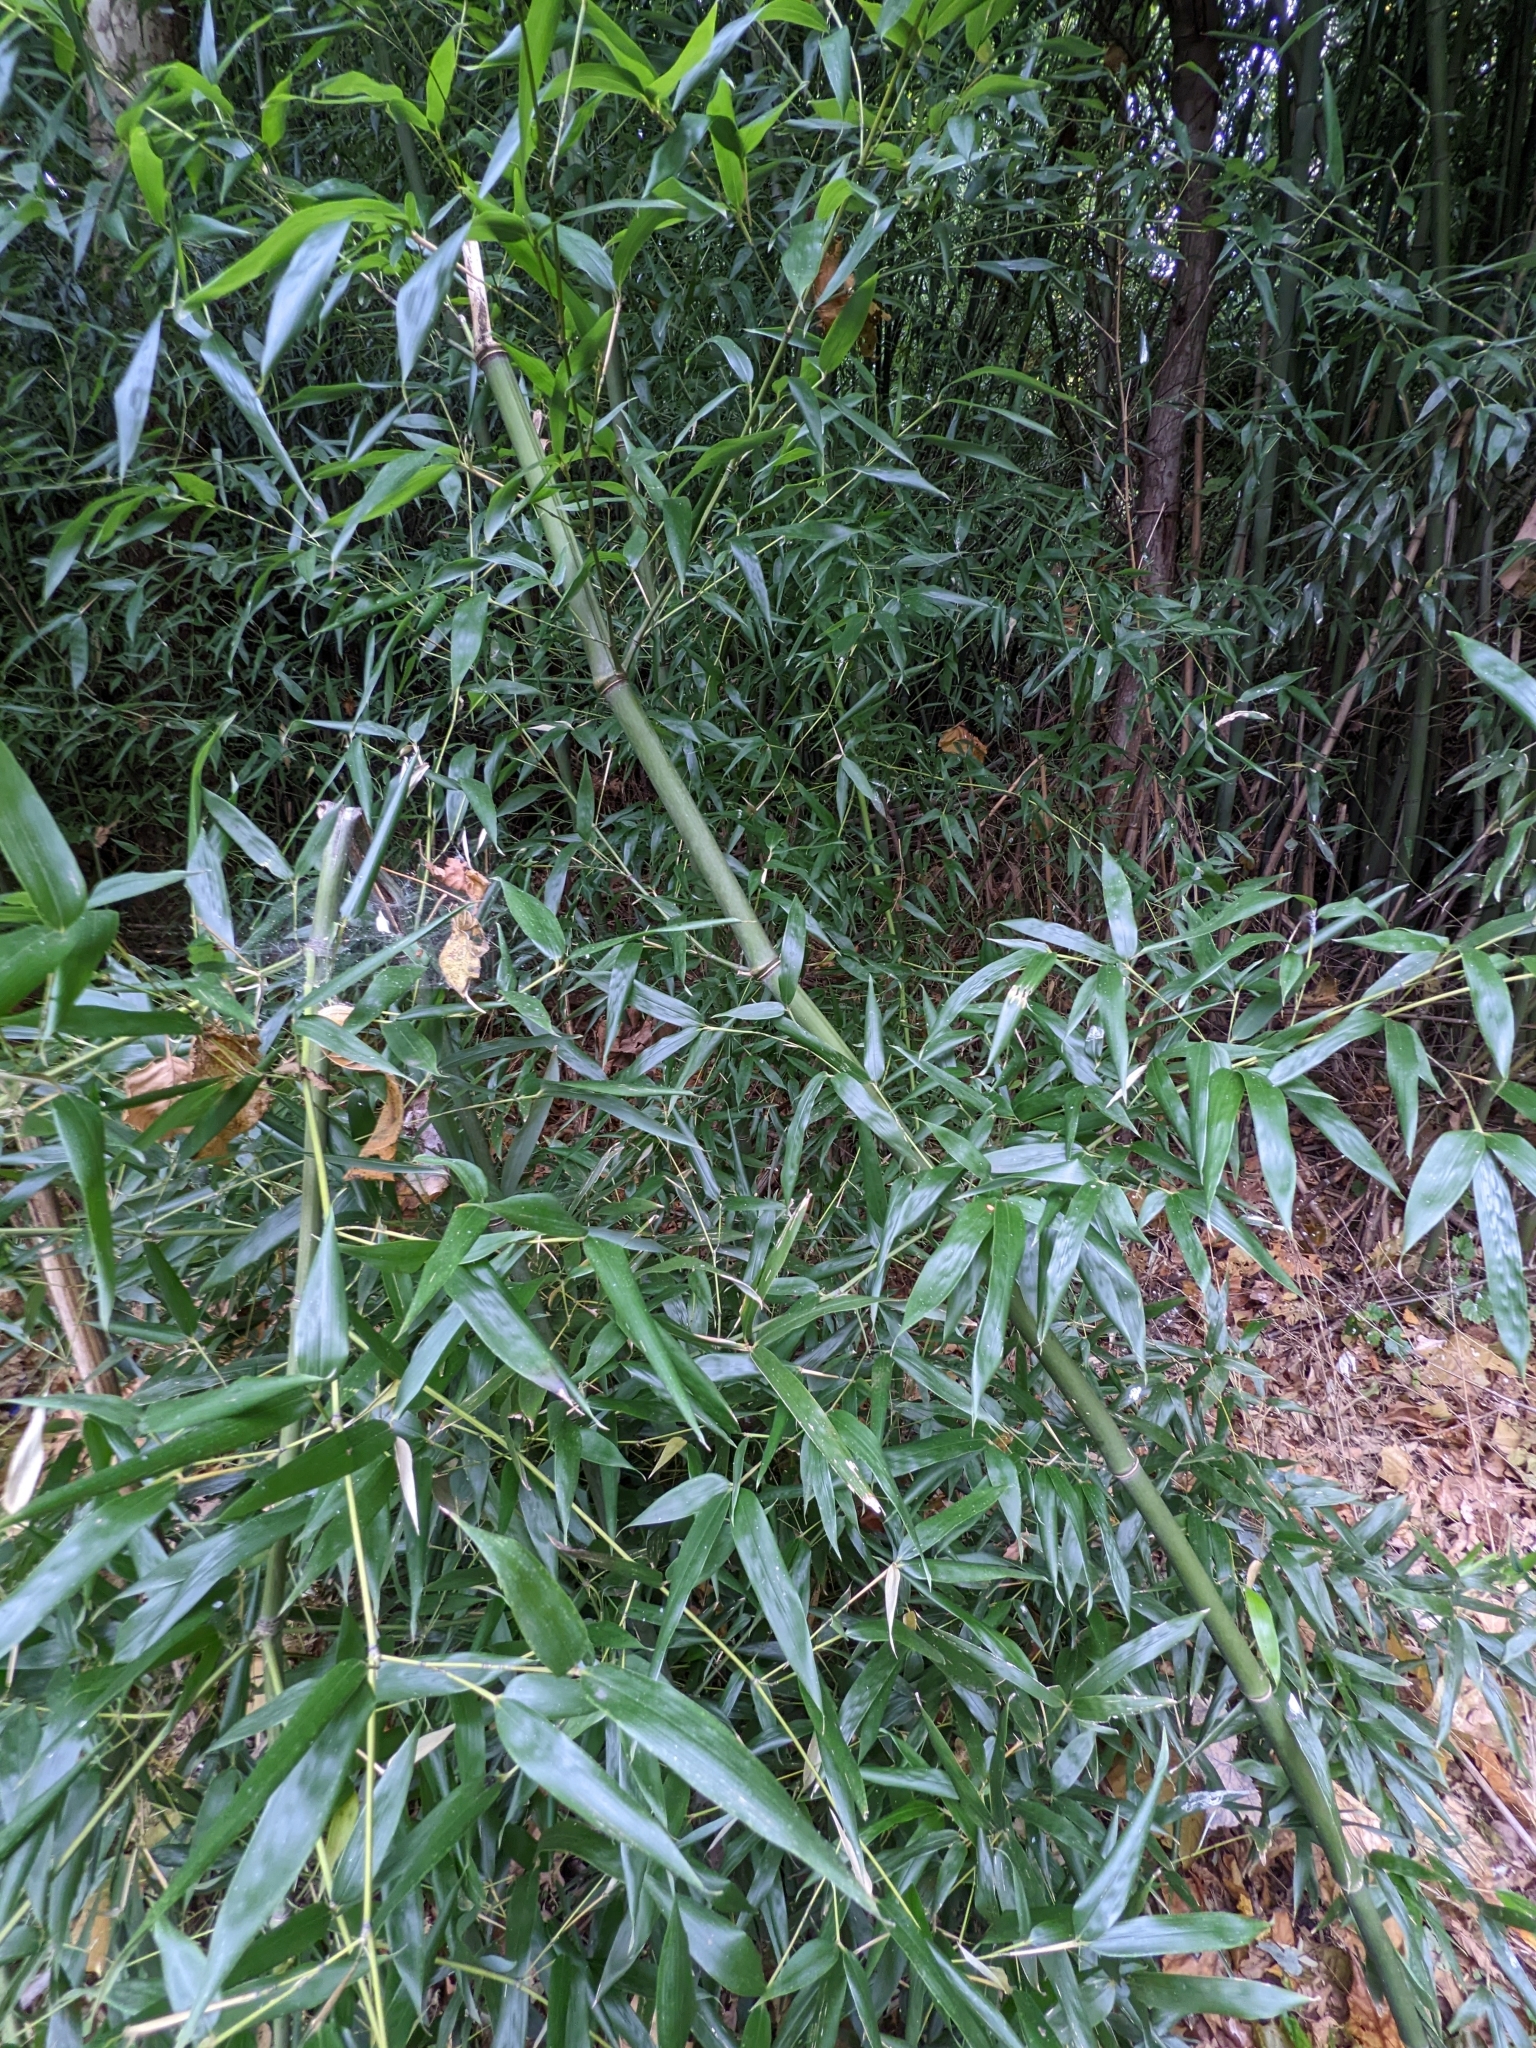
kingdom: Plantae
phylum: Tracheophyta
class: Liliopsida
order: Poales
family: Poaceae
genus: Phyllostachys
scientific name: Phyllostachys aurea
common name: Golden bamboo
